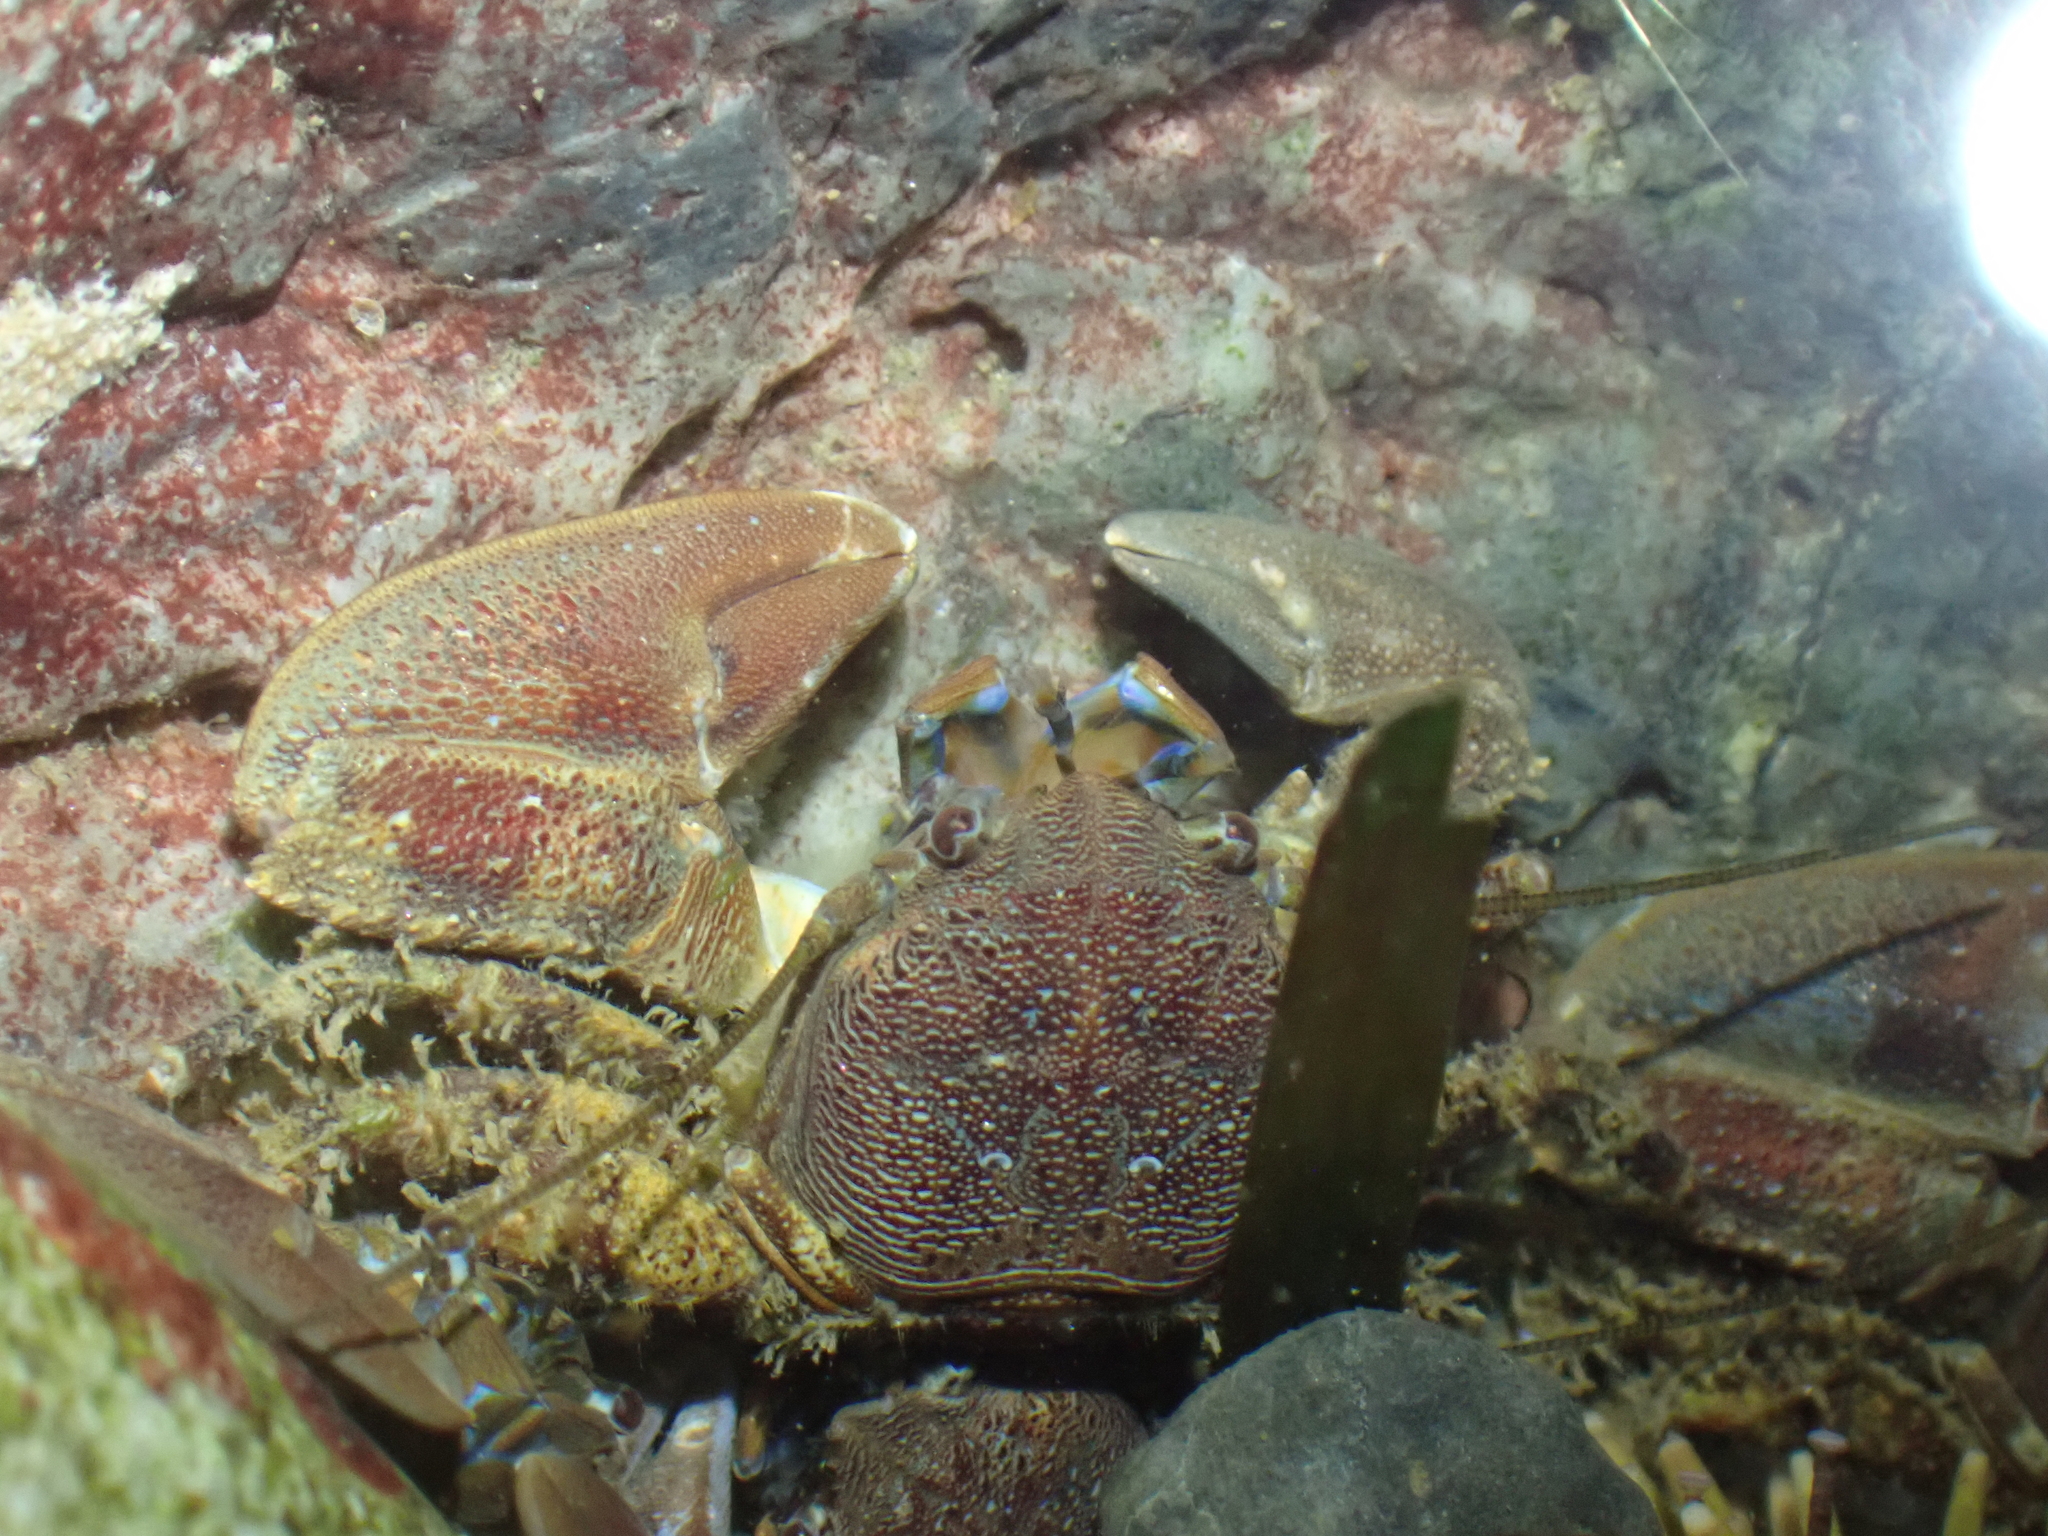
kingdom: Animalia
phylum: Arthropoda
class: Malacostraca
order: Decapoda
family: Porcellanidae
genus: Petrolisthes
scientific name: Petrolisthes eriomerus
